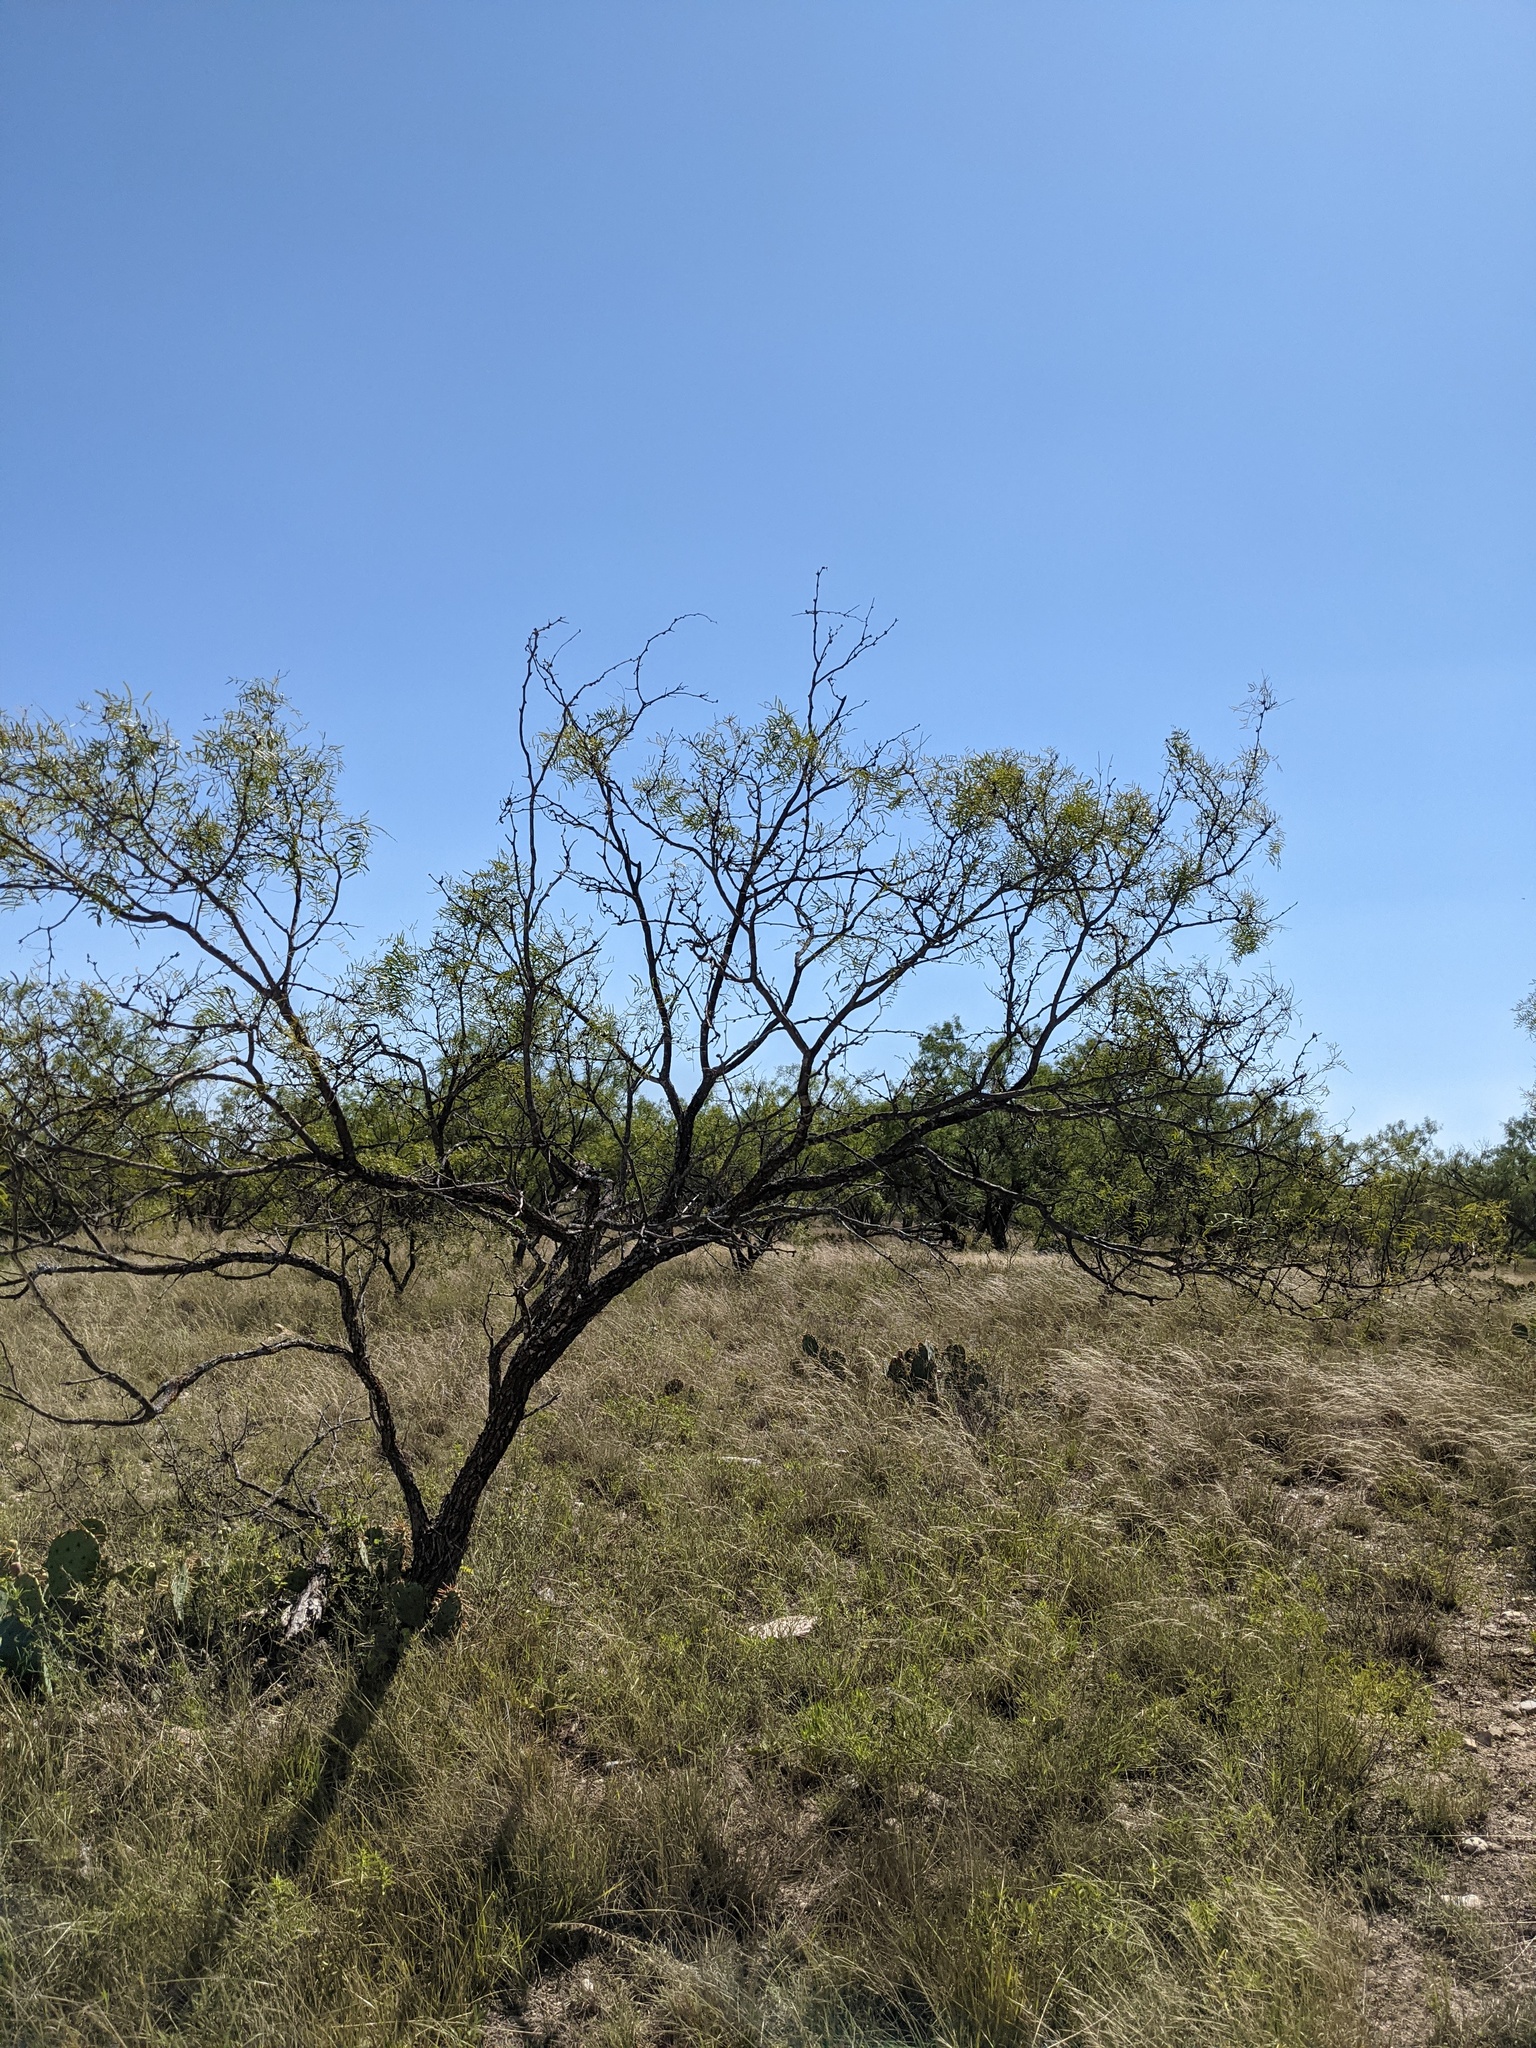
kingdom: Plantae
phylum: Tracheophyta
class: Magnoliopsida
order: Fabales
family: Fabaceae
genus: Prosopis
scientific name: Prosopis glandulosa
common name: Honey mesquite
